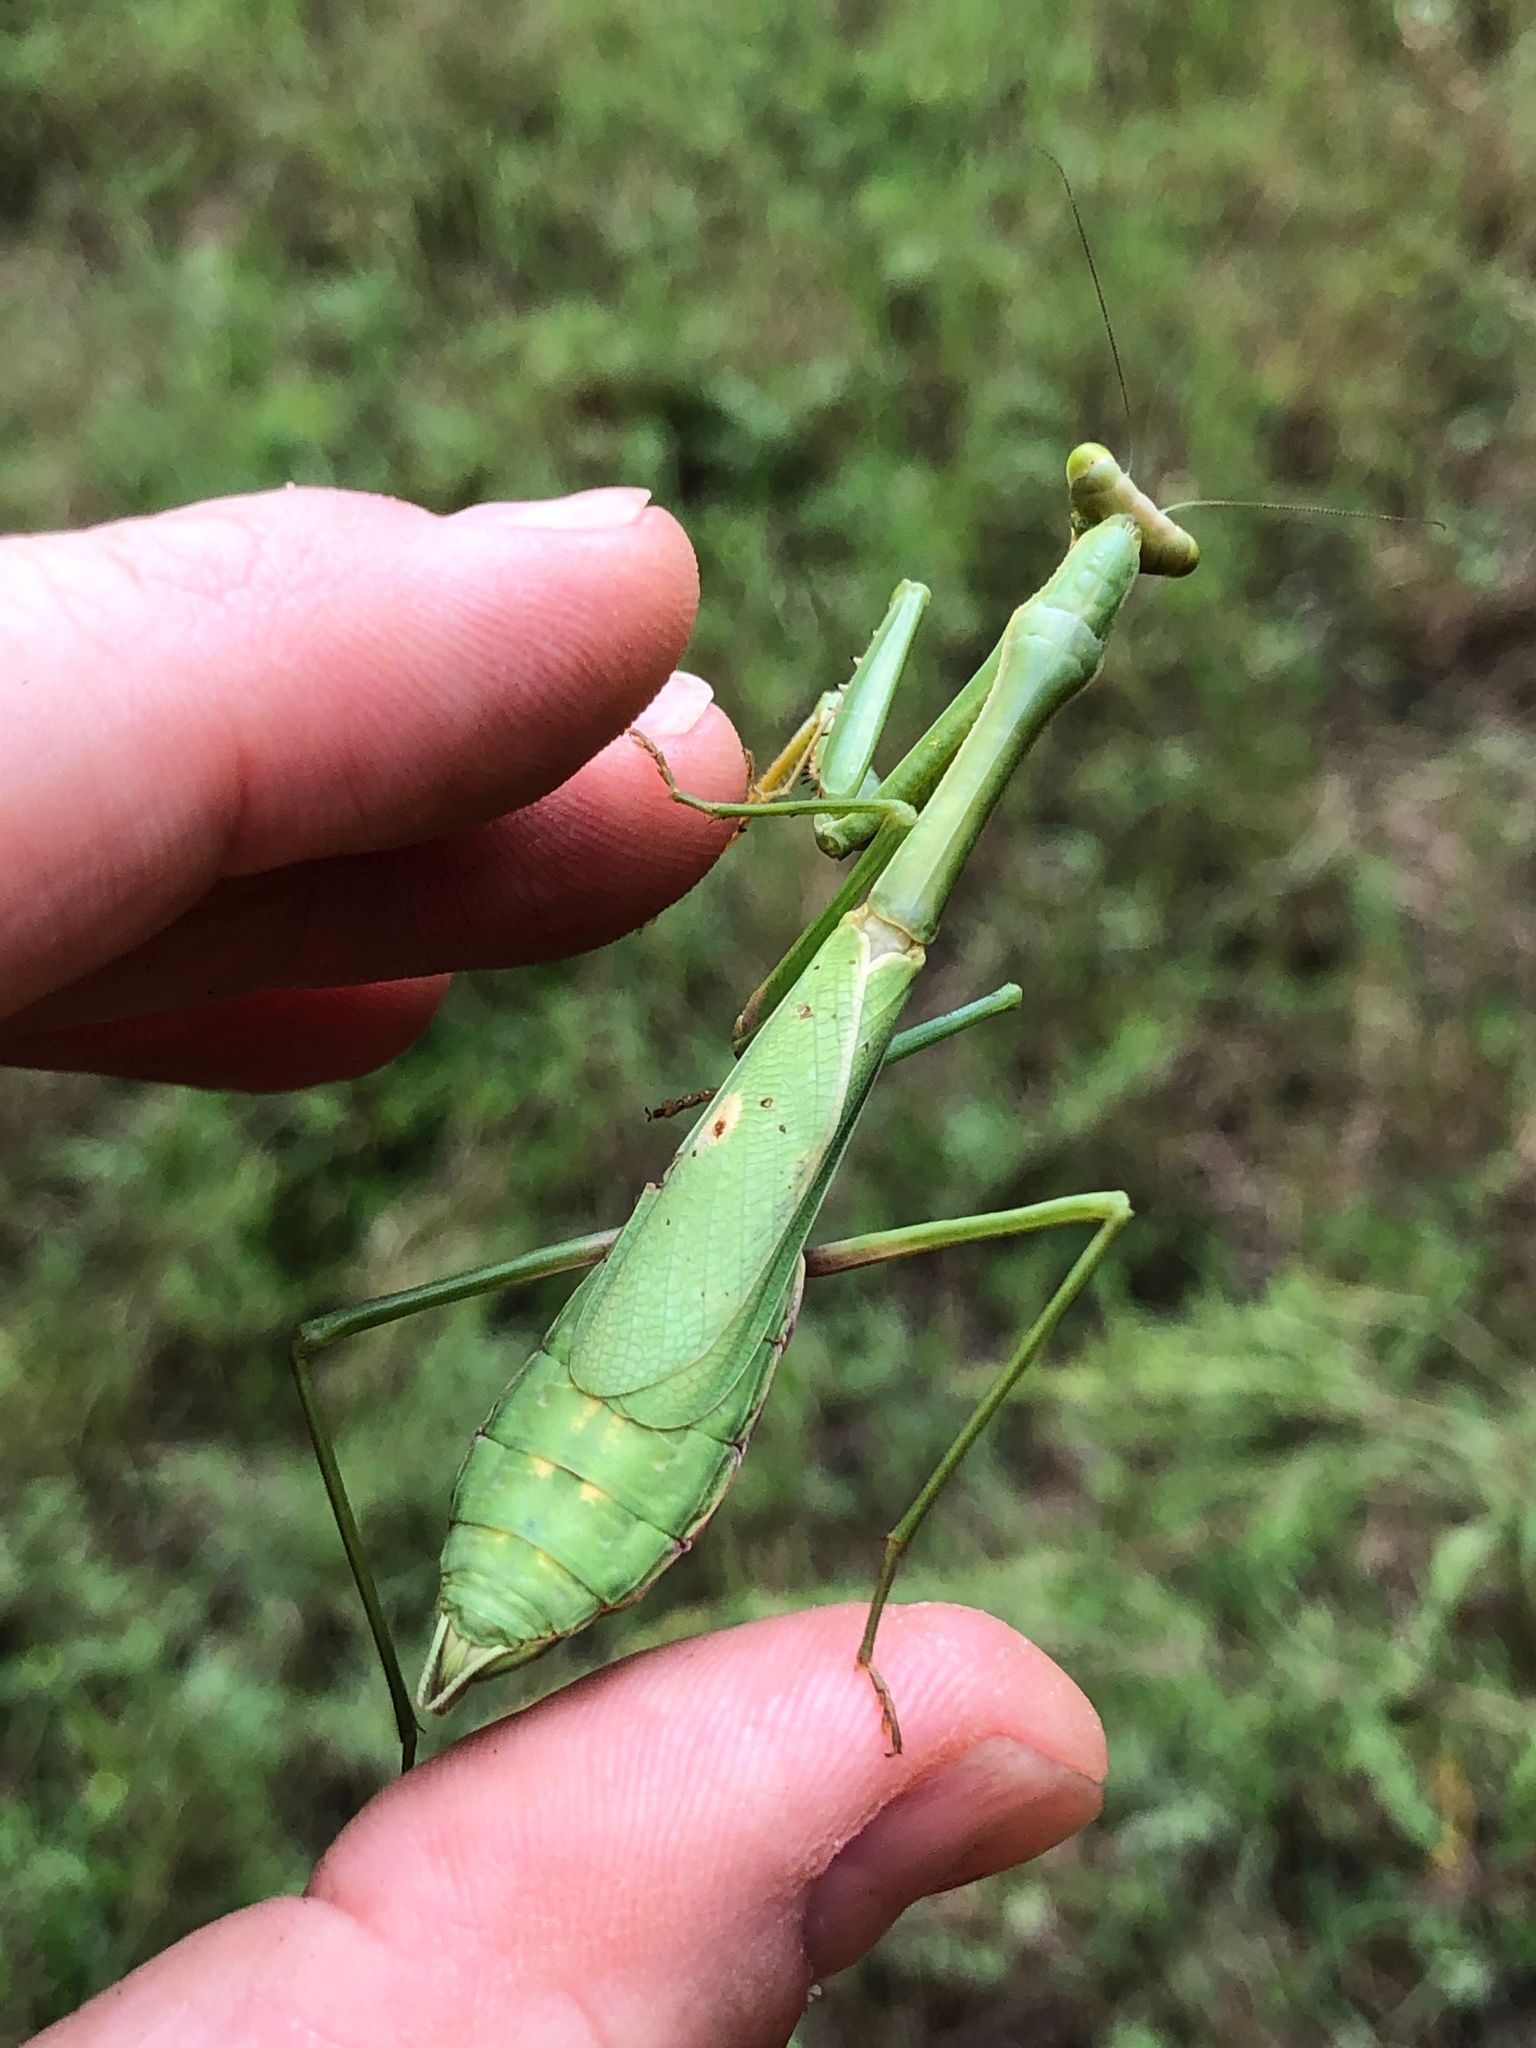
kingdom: Animalia
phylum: Arthropoda
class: Insecta
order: Mantodea
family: Mantidae
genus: Stagmomantis
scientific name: Stagmomantis carolina
